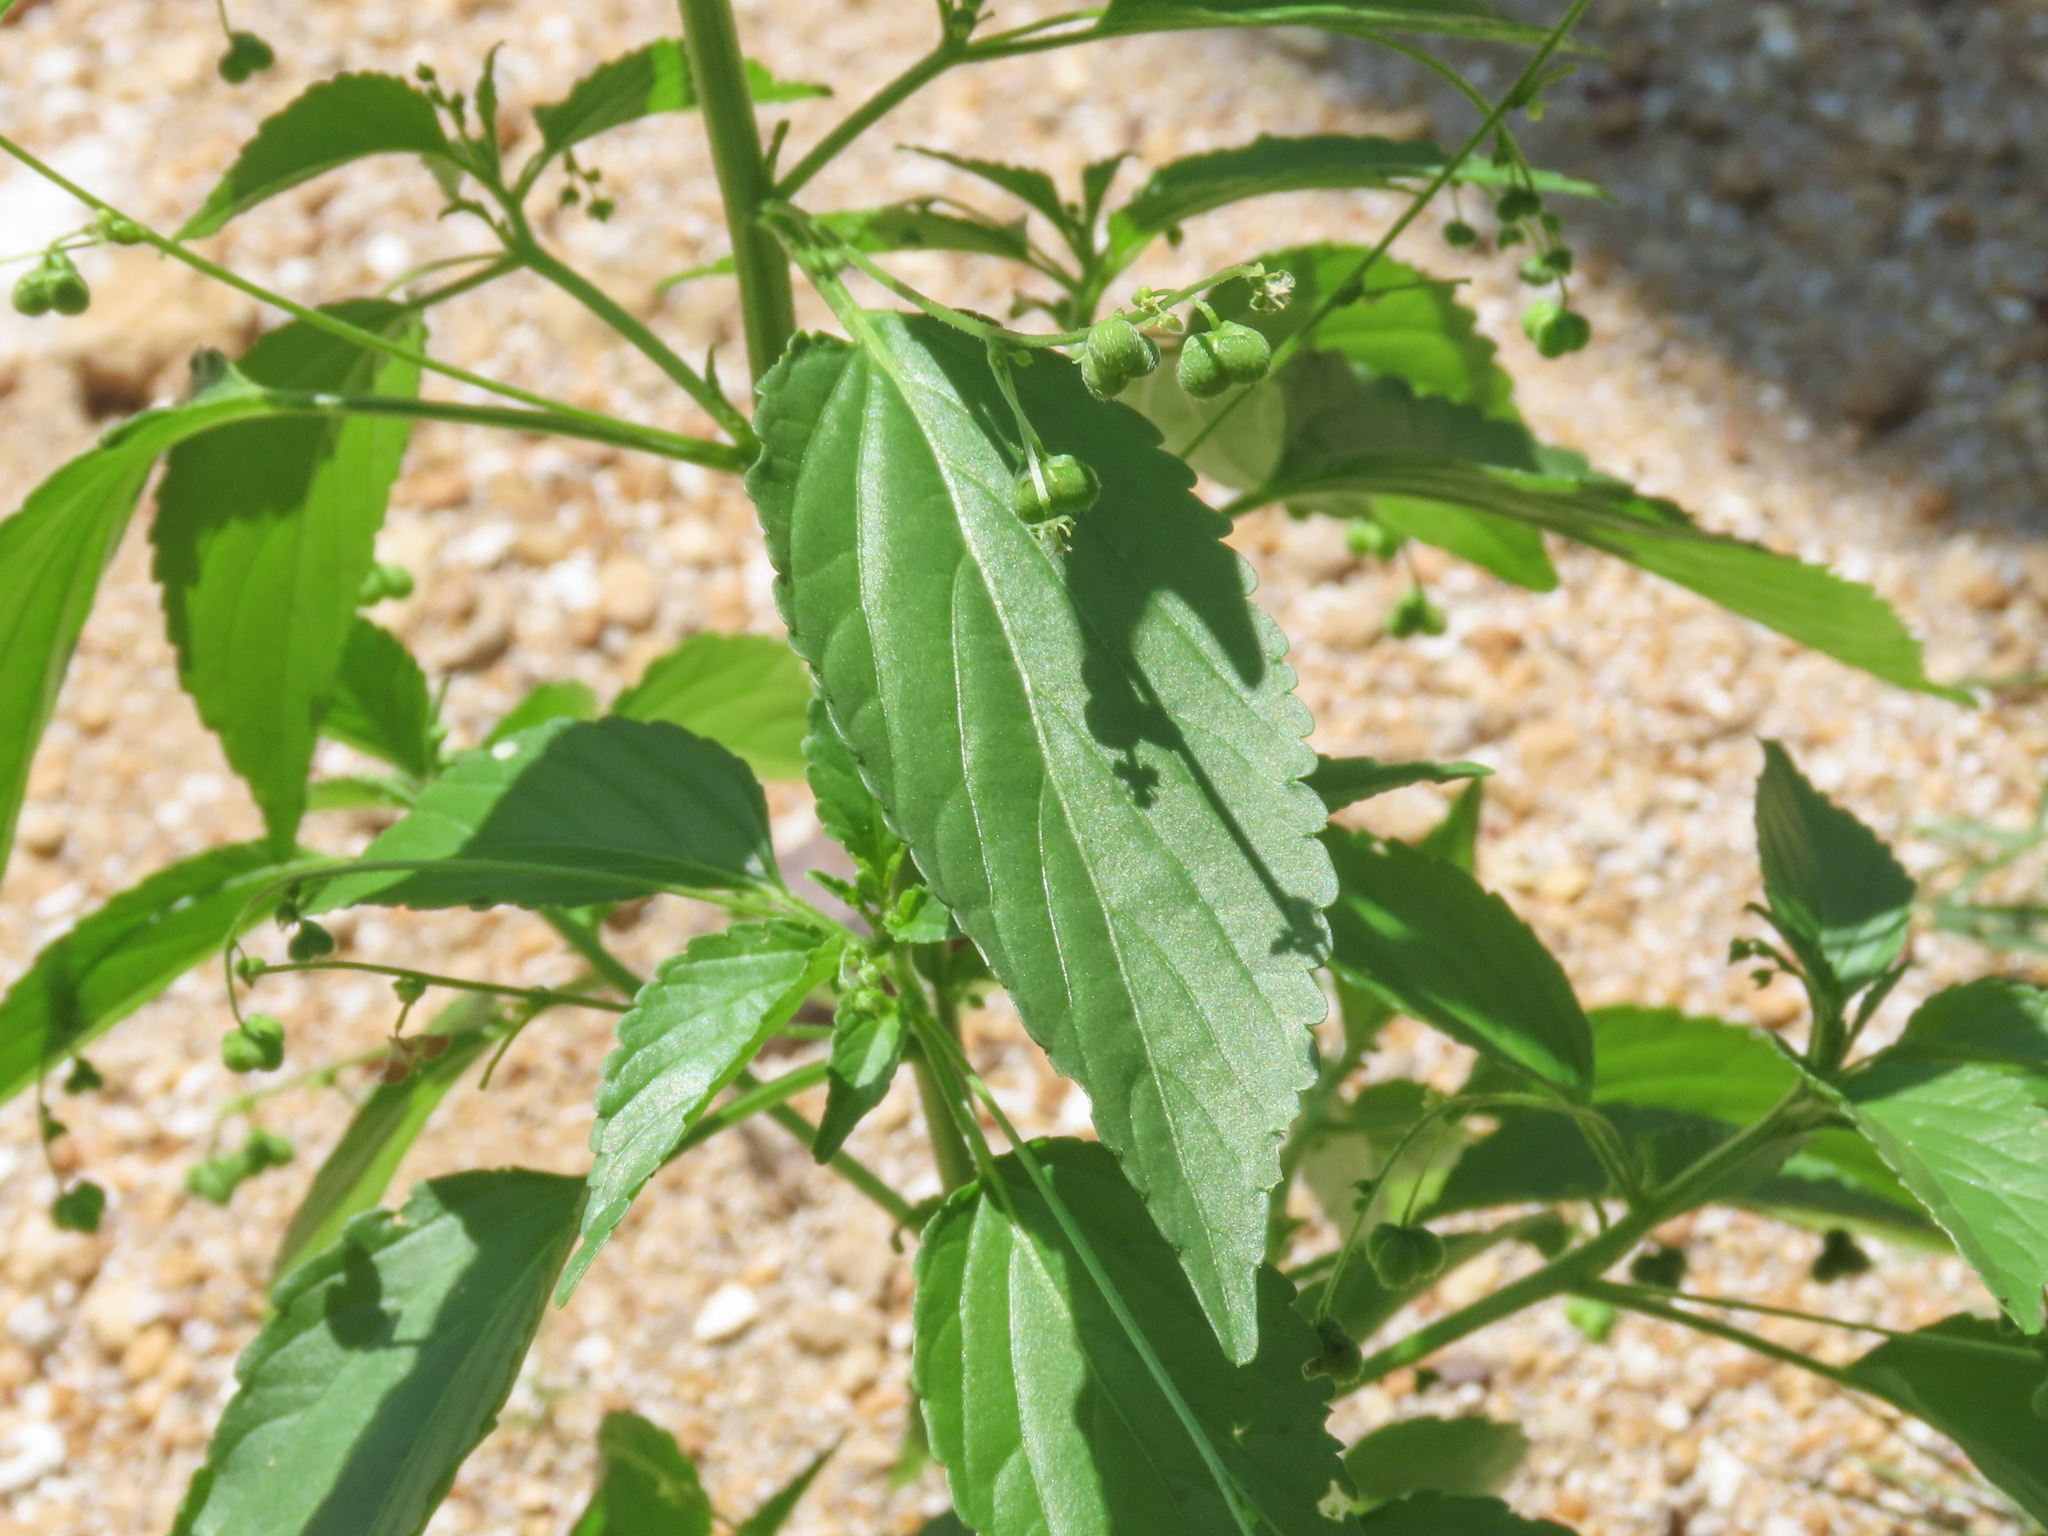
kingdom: Plantae
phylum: Tracheophyta
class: Magnoliopsida
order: Malpighiales
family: Euphorbiaceae
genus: Micrococca
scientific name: Micrococca mercurialis
